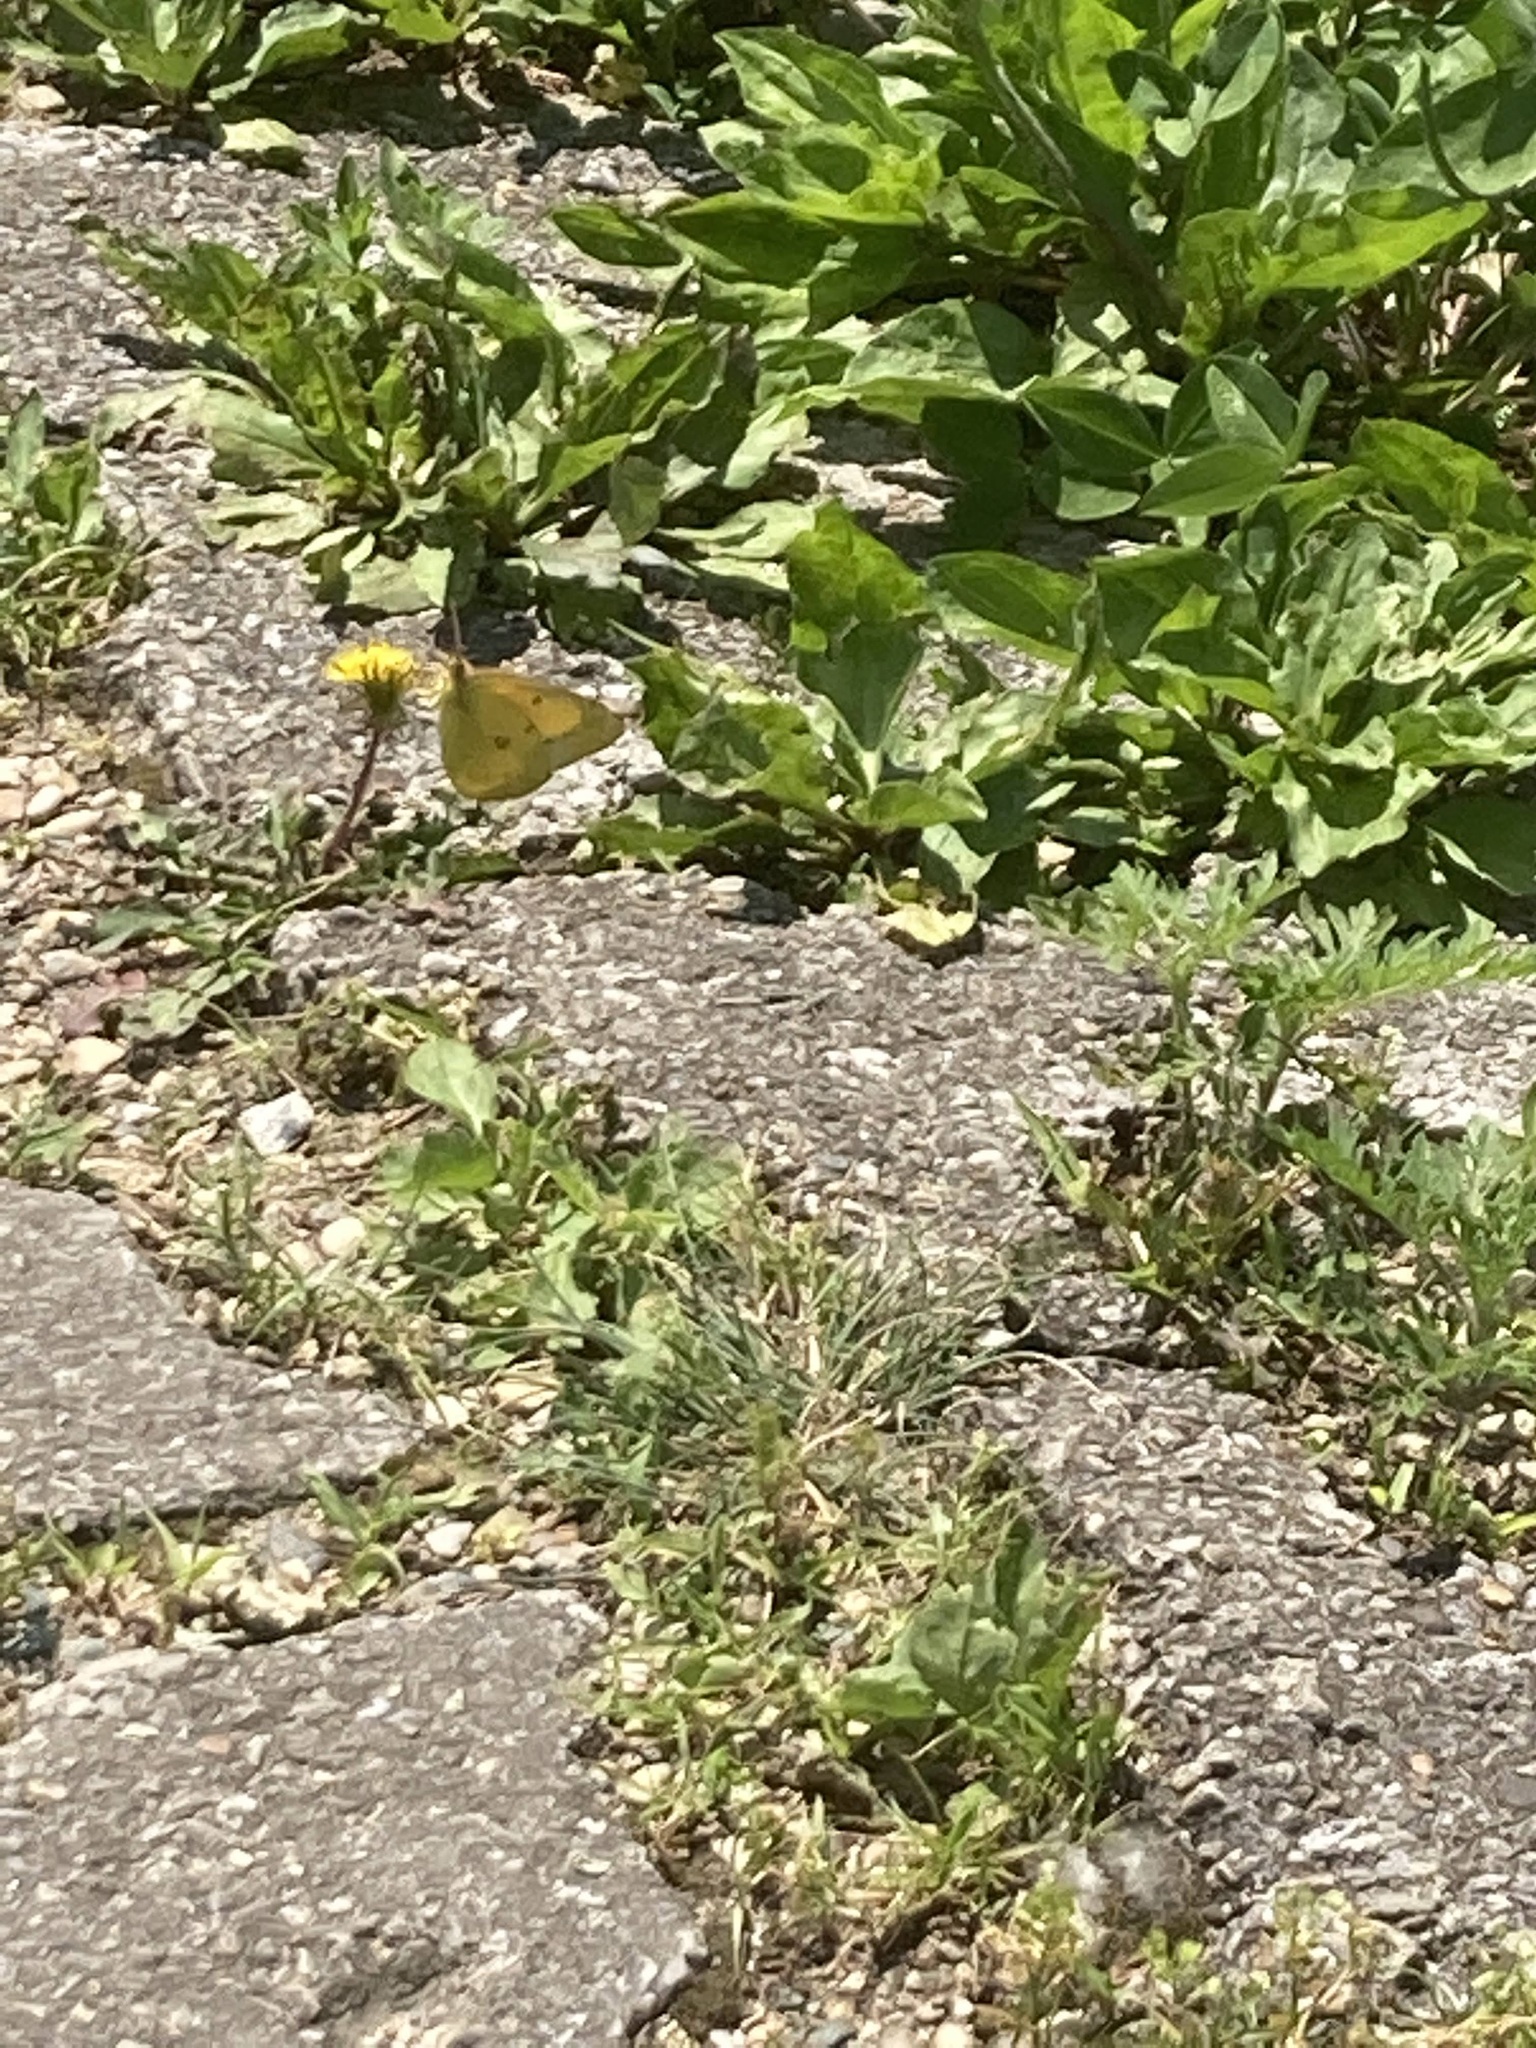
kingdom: Animalia
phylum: Arthropoda
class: Insecta
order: Lepidoptera
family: Pieridae
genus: Colias
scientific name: Colias eurytheme
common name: Alfalfa butterfly
